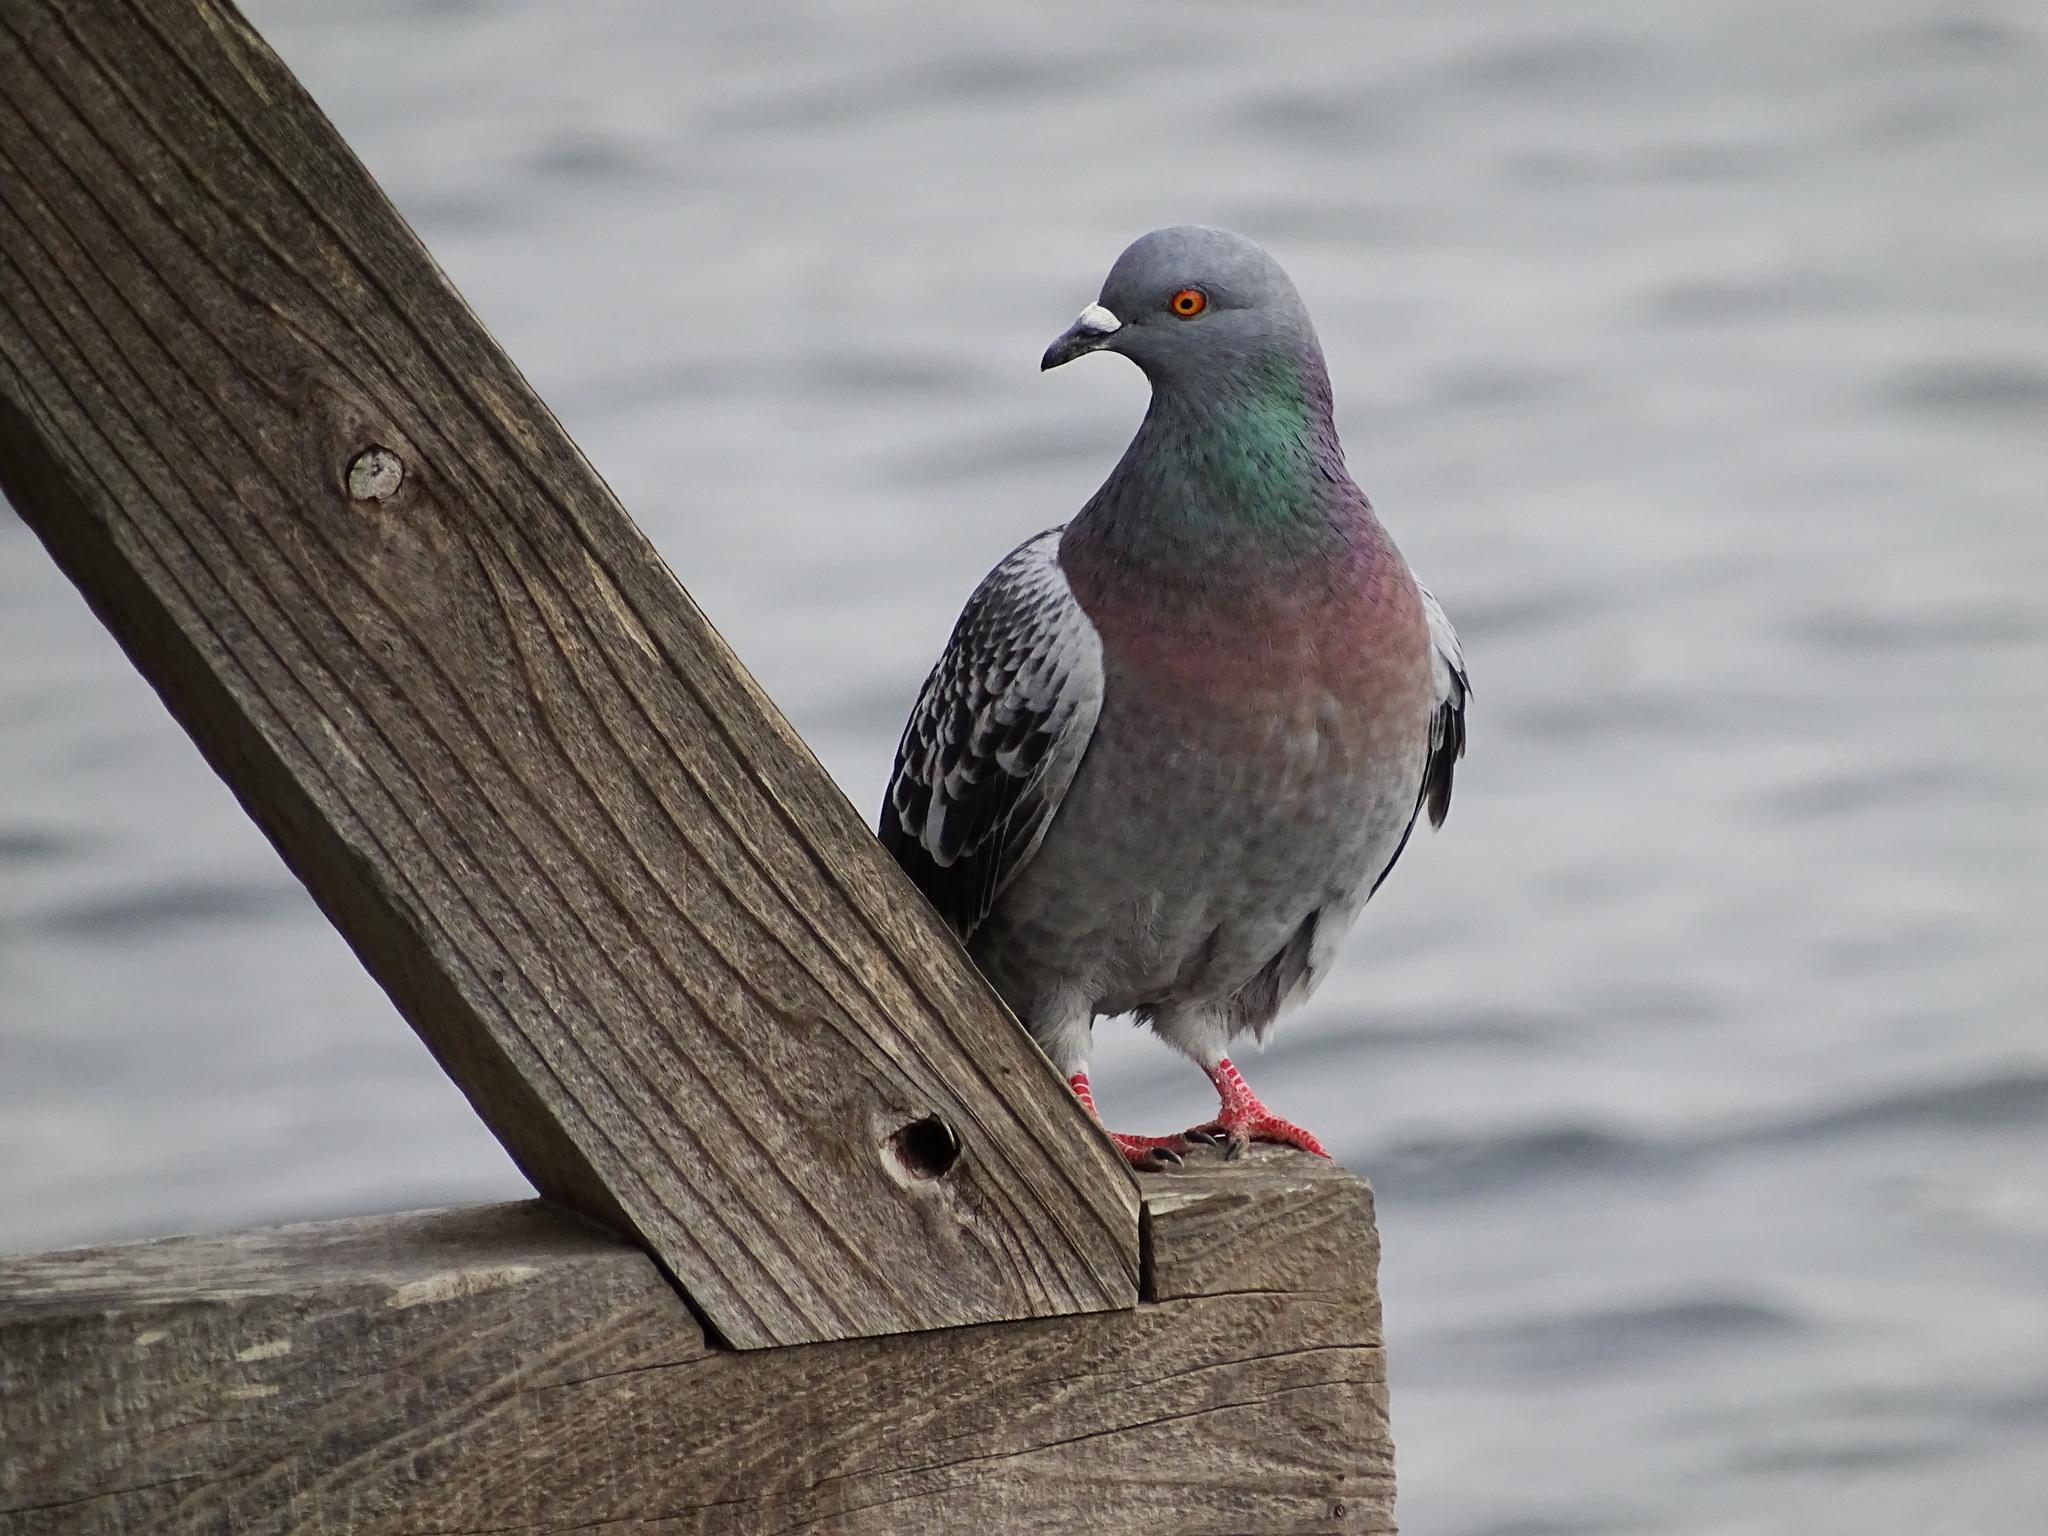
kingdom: Animalia
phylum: Chordata
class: Aves
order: Columbiformes
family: Columbidae
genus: Columba
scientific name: Columba livia
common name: Rock pigeon
